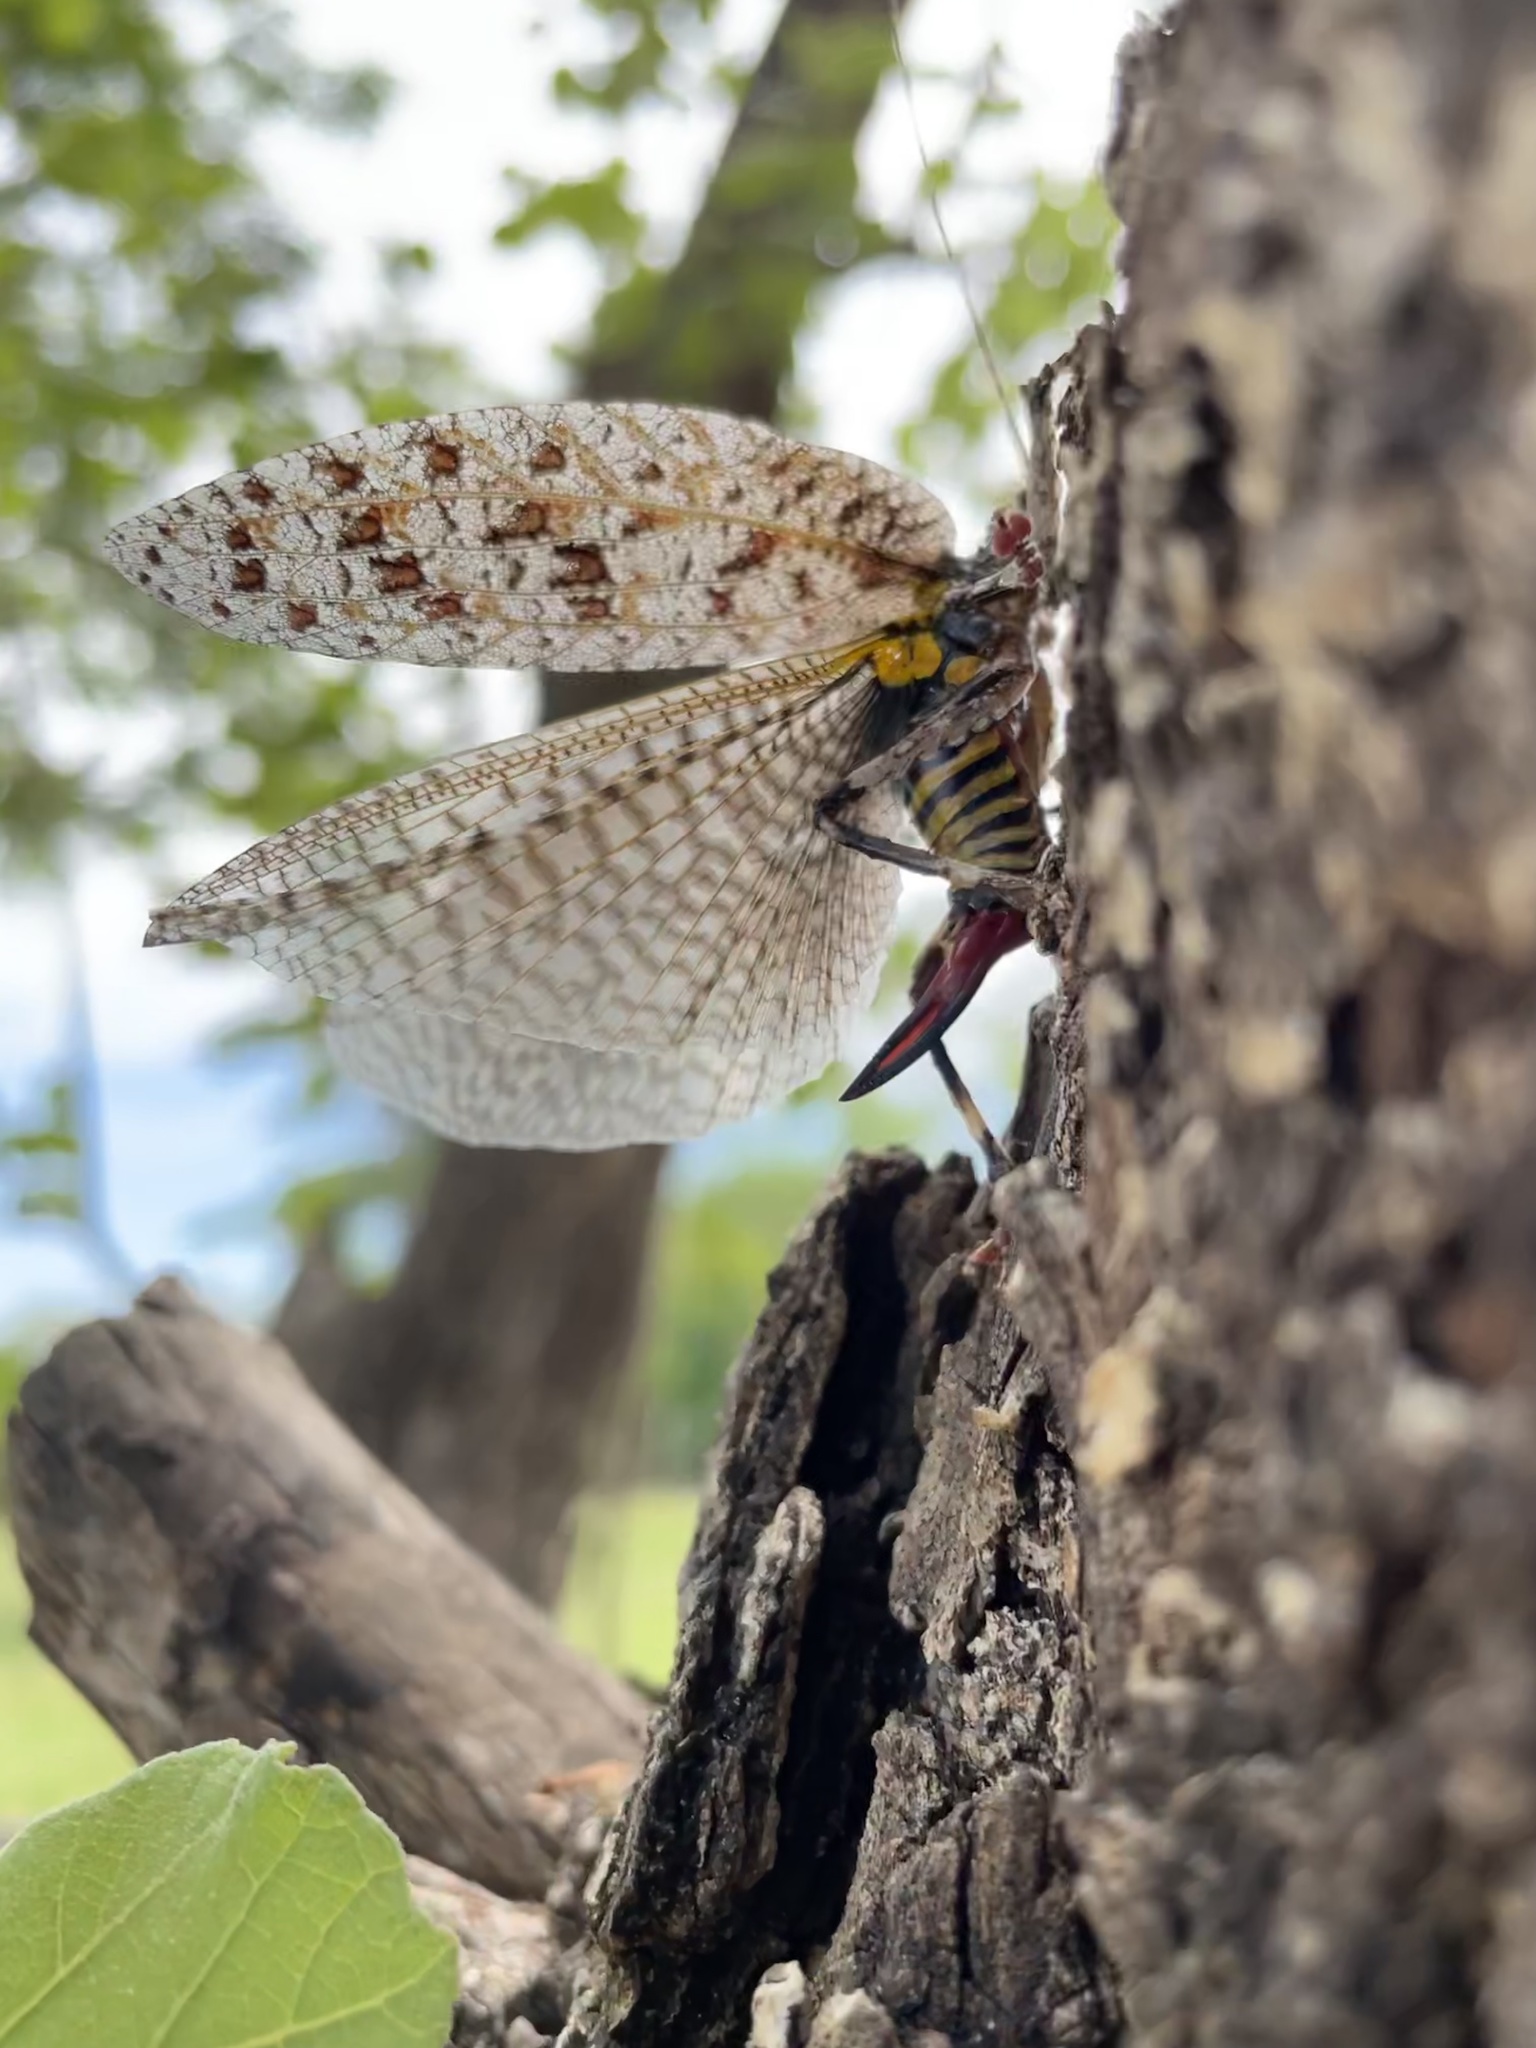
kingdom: Animalia
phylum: Arthropoda
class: Insecta
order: Orthoptera
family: Tettigoniidae
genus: Cymatomera
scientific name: Cymatomera denticollis
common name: Common bark katydid
